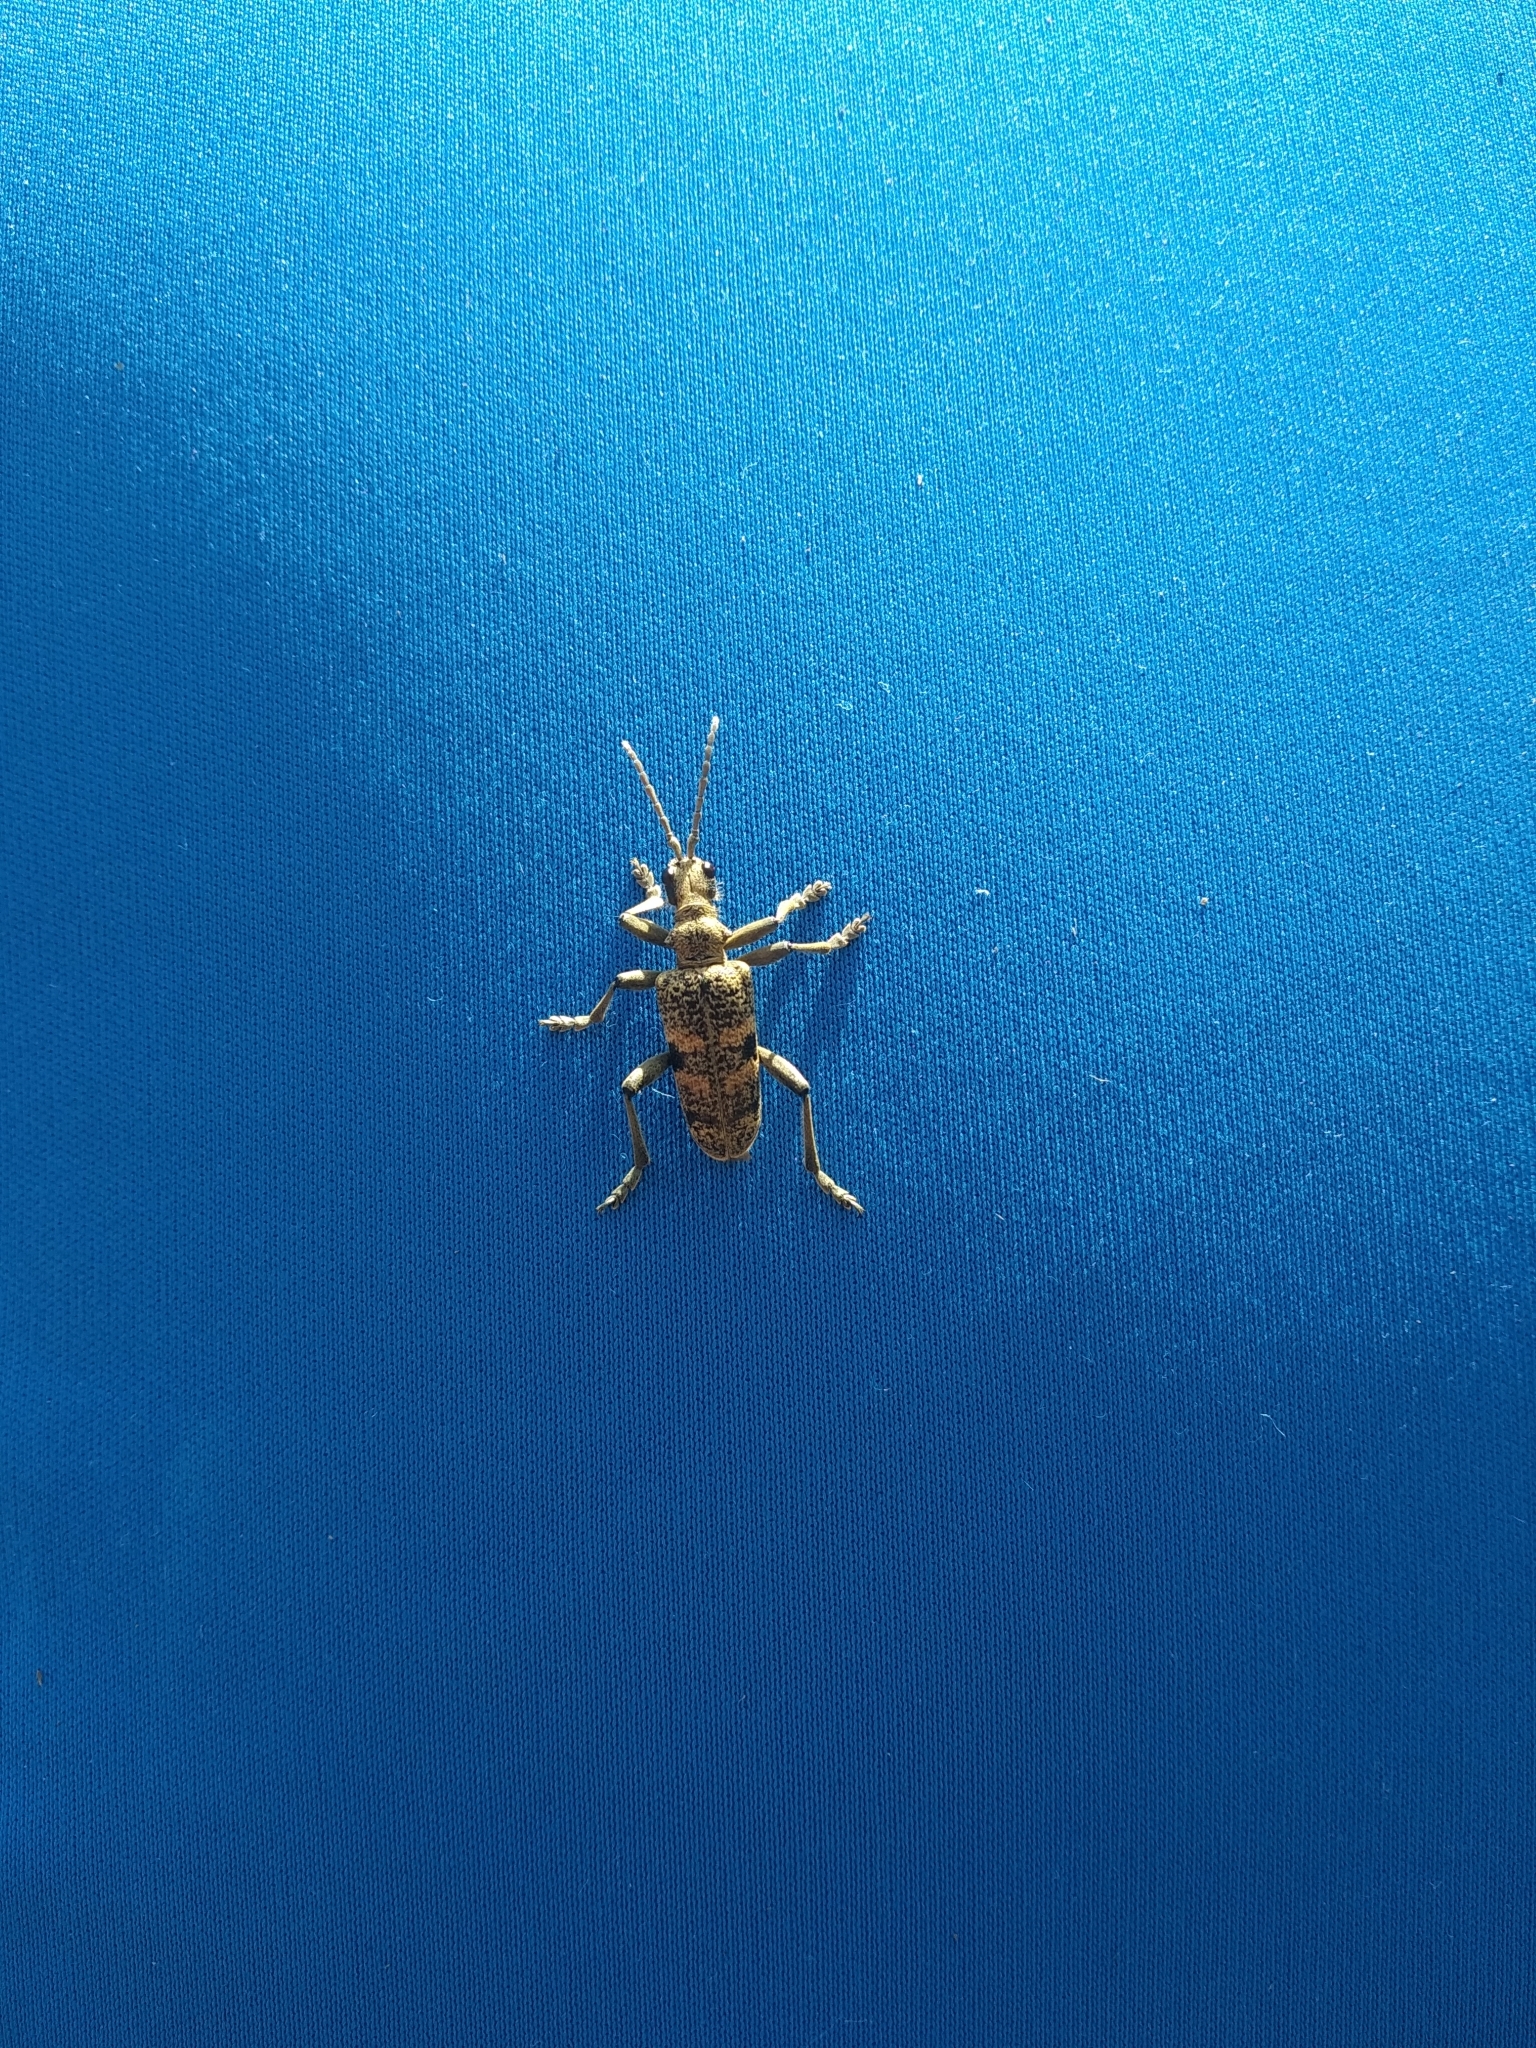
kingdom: Animalia
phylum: Arthropoda
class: Insecta
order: Coleoptera
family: Cerambycidae
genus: Rhagium
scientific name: Rhagium mordax
